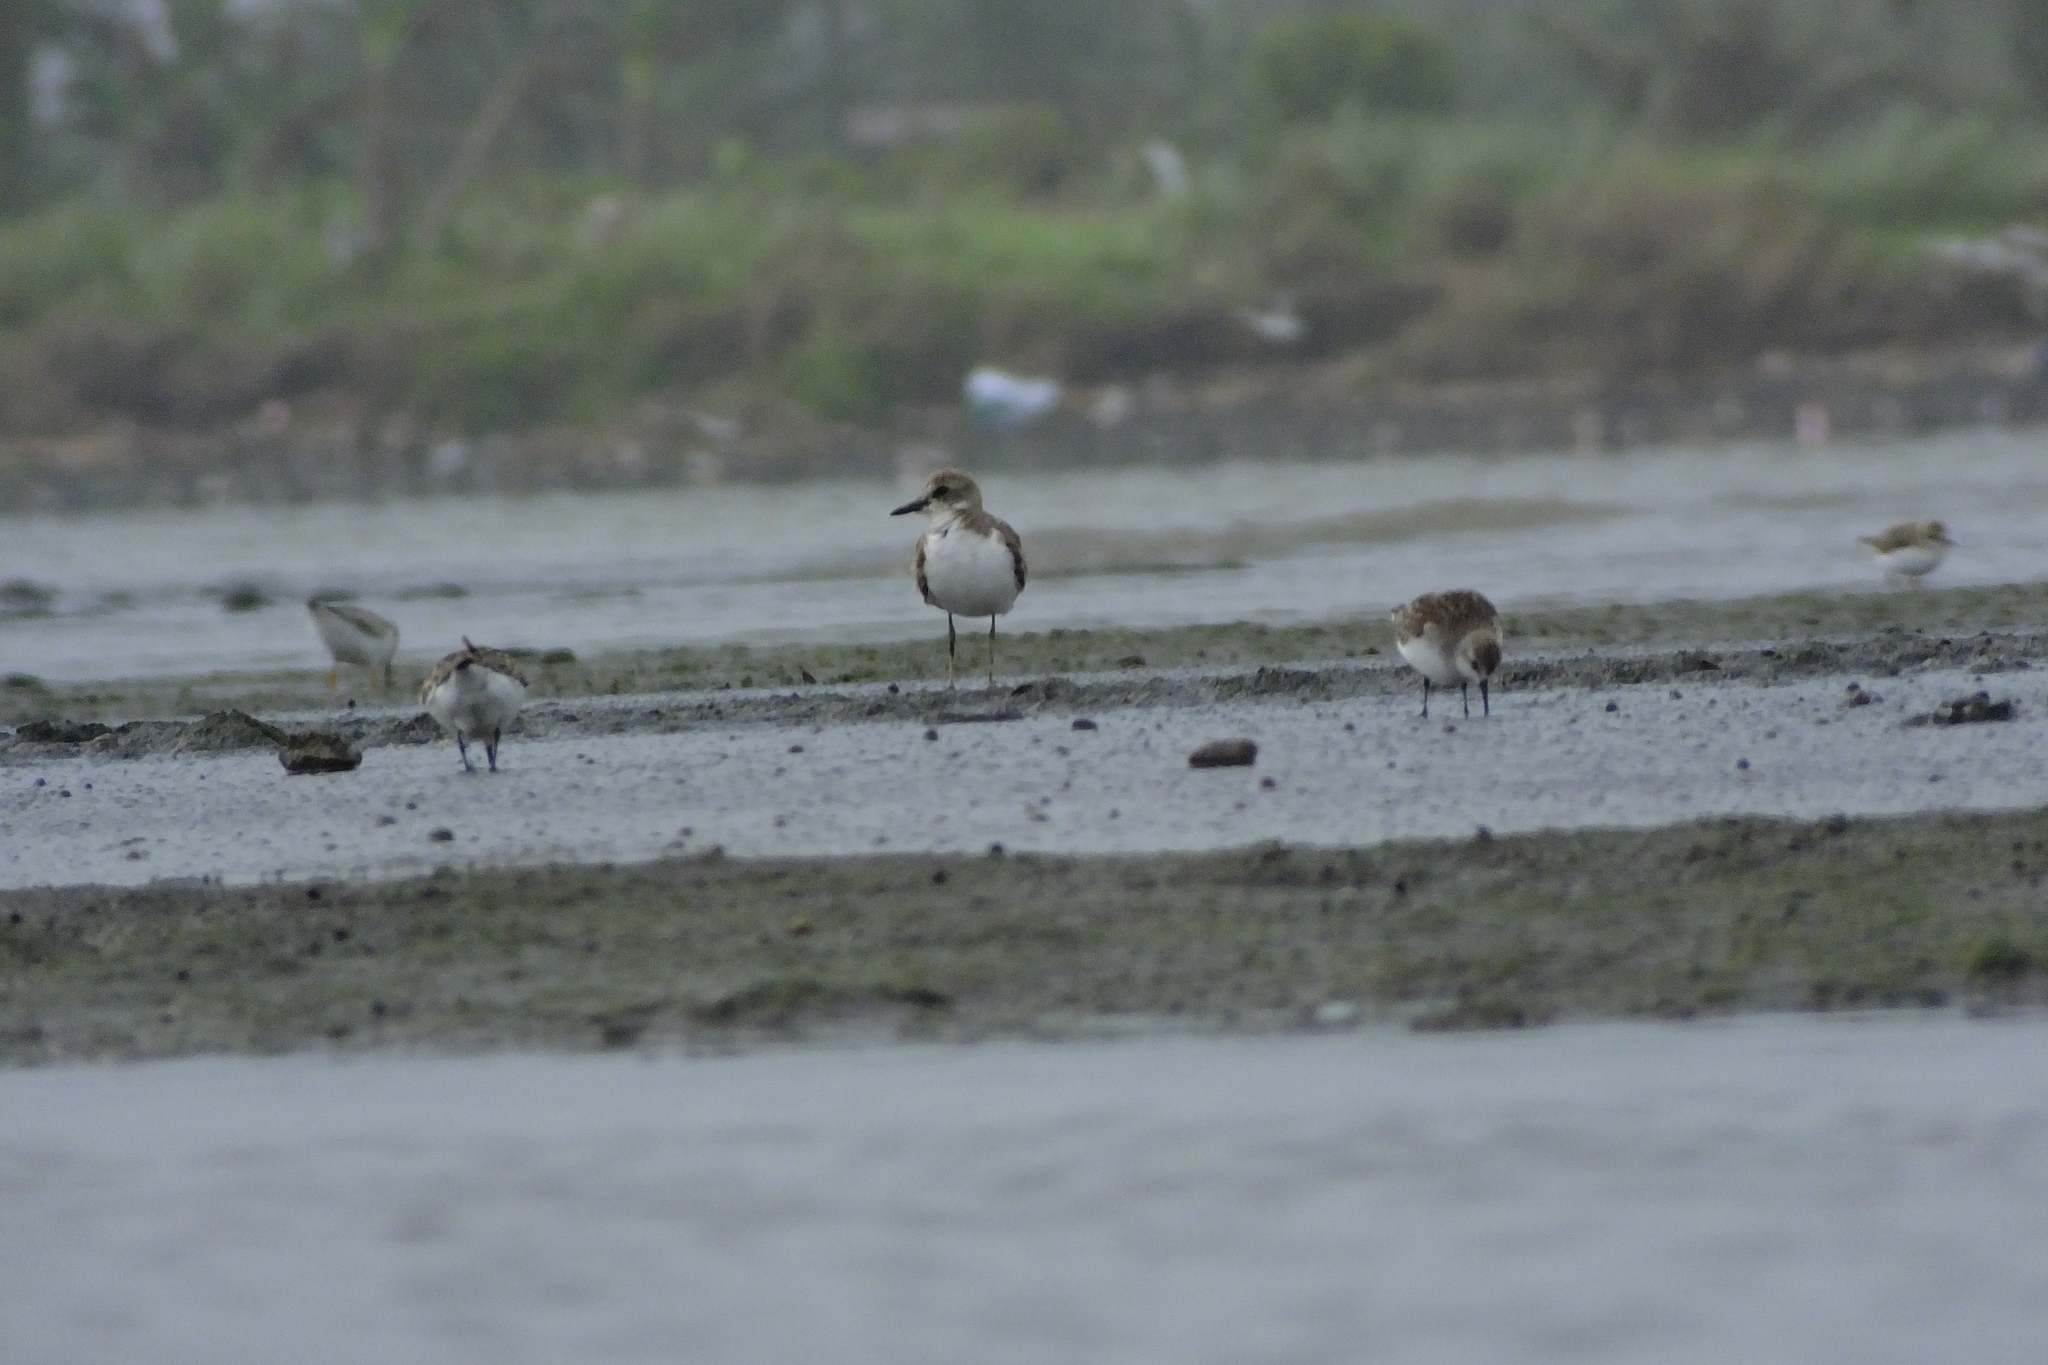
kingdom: Animalia
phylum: Chordata
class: Aves
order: Charadriiformes
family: Charadriidae
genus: Charadrius
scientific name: Charadrius leschenaultii
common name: Greater sand plover
